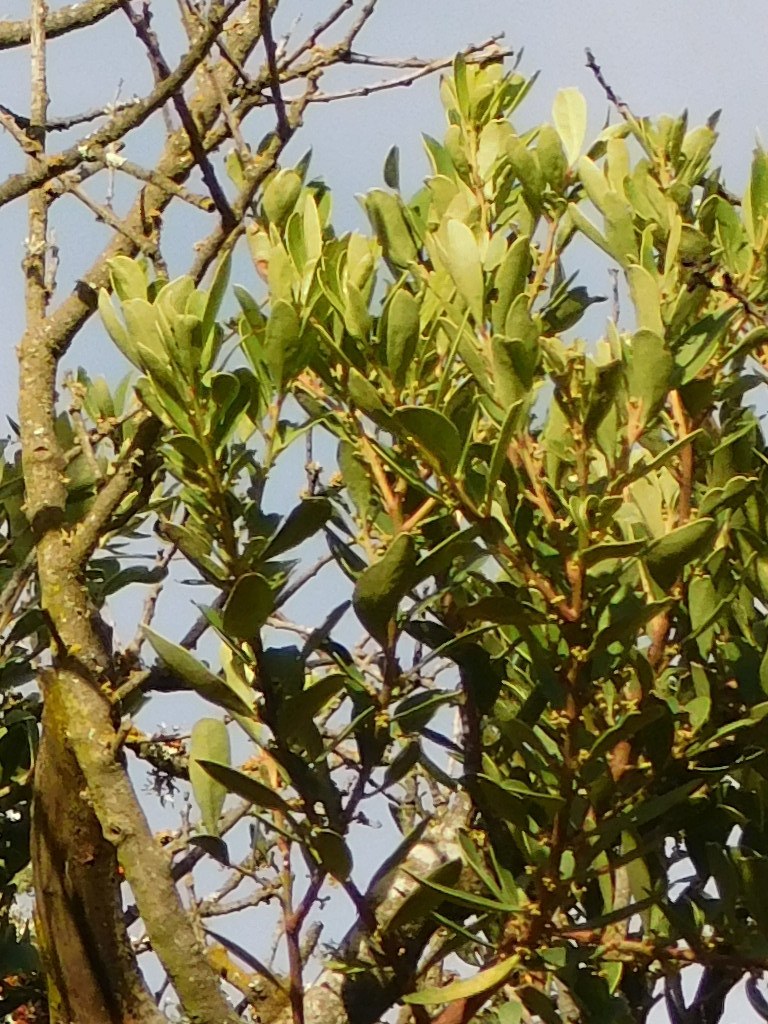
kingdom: Plantae
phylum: Tracheophyta
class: Magnoliopsida
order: Celastrales
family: Celastraceae
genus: Gymnosporia
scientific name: Gymnosporia laurina
